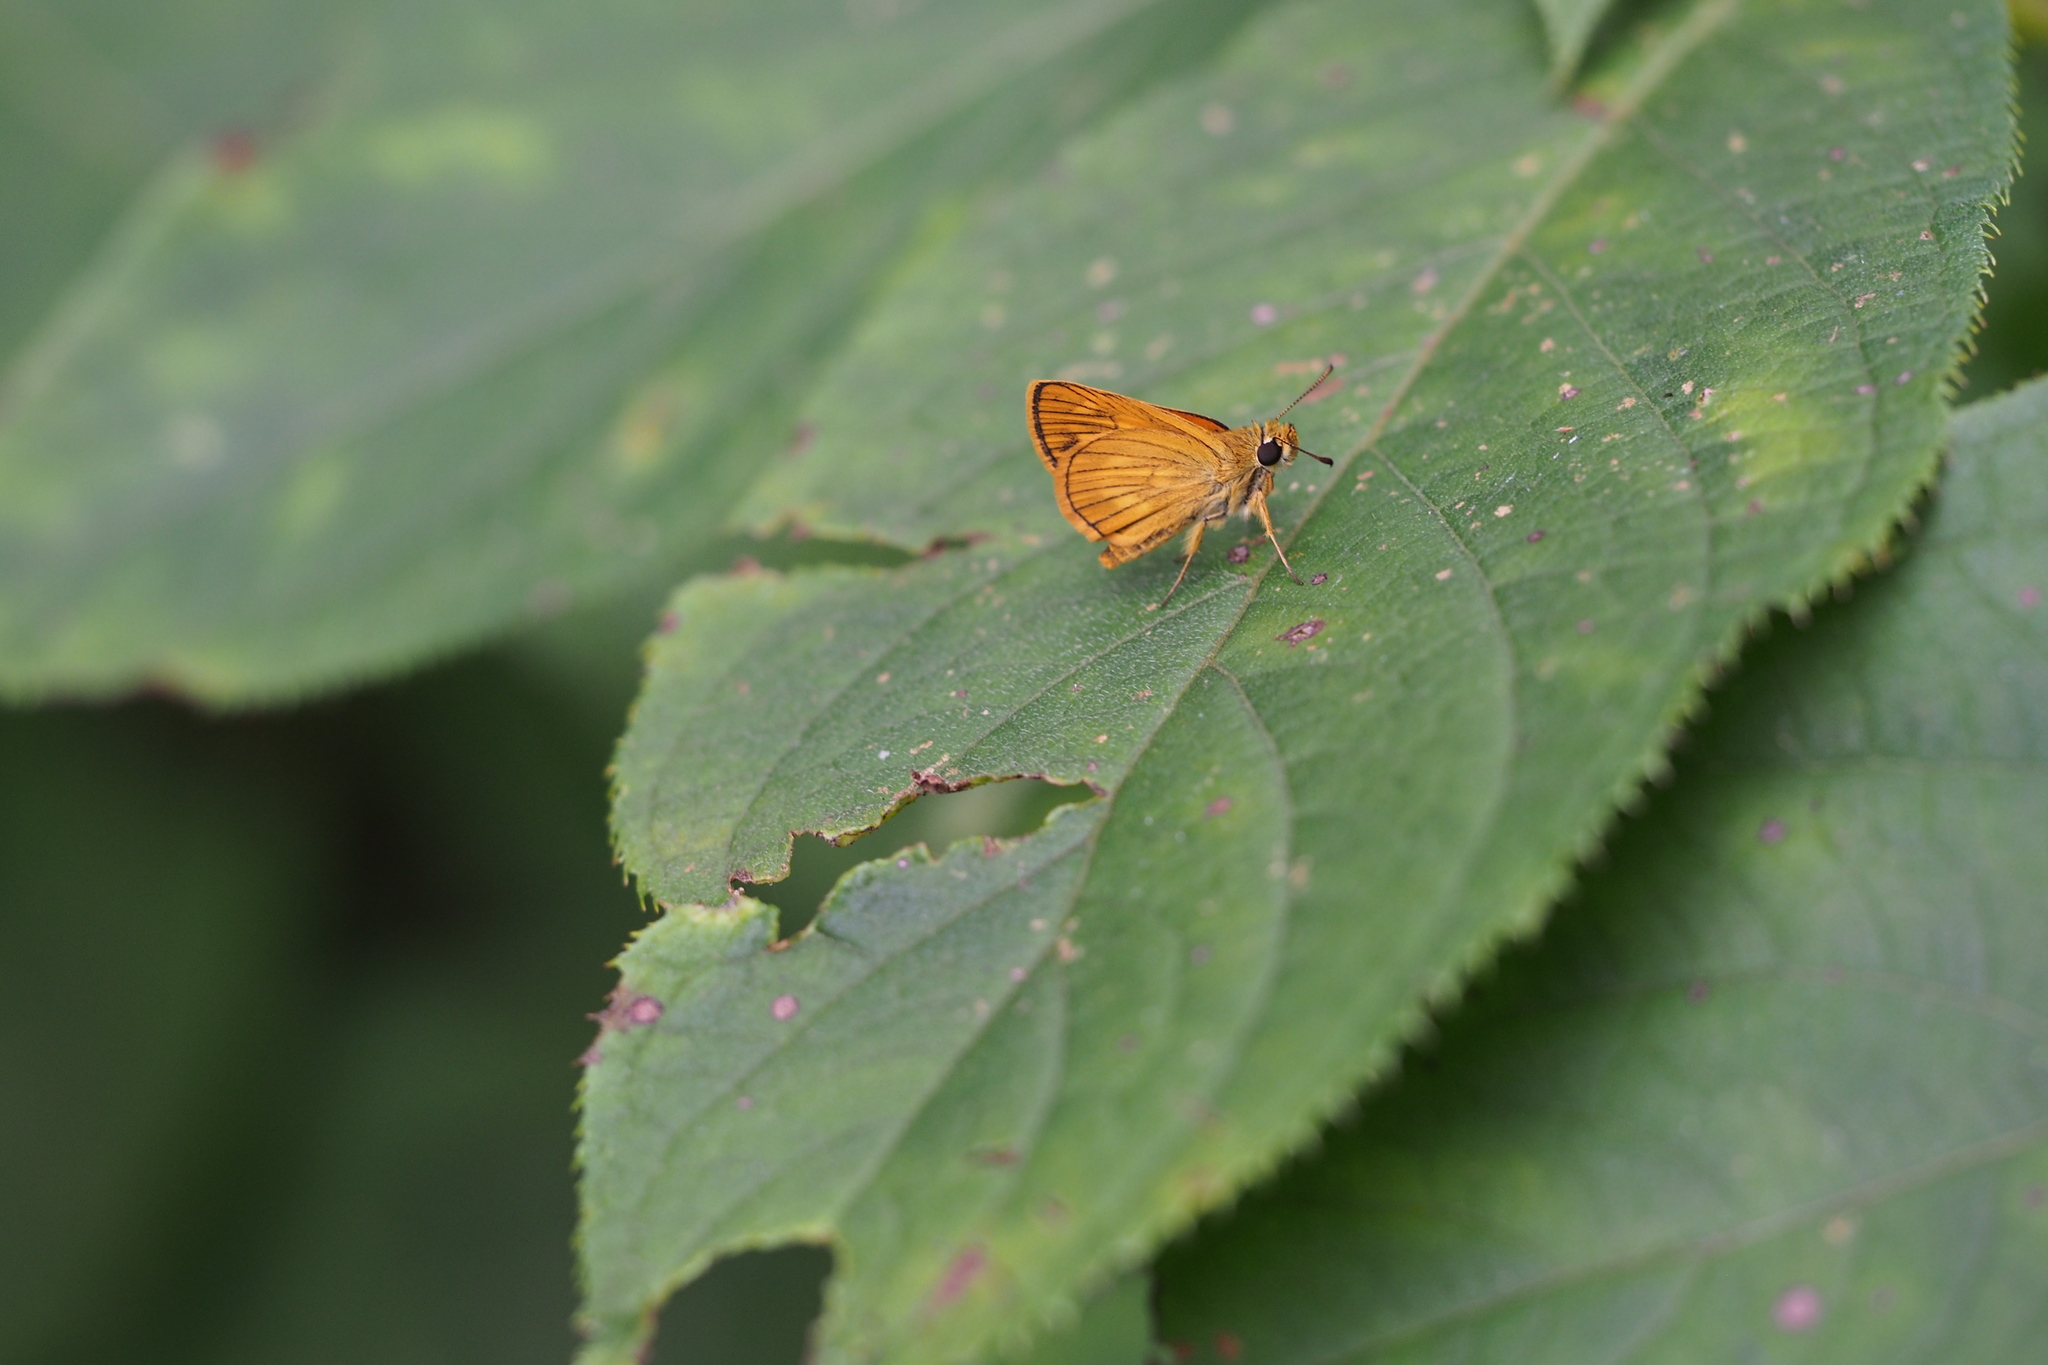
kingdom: Animalia
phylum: Arthropoda
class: Insecta
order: Lepidoptera
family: Hesperiidae
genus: Ochlodes
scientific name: Ochlodes ochracea
